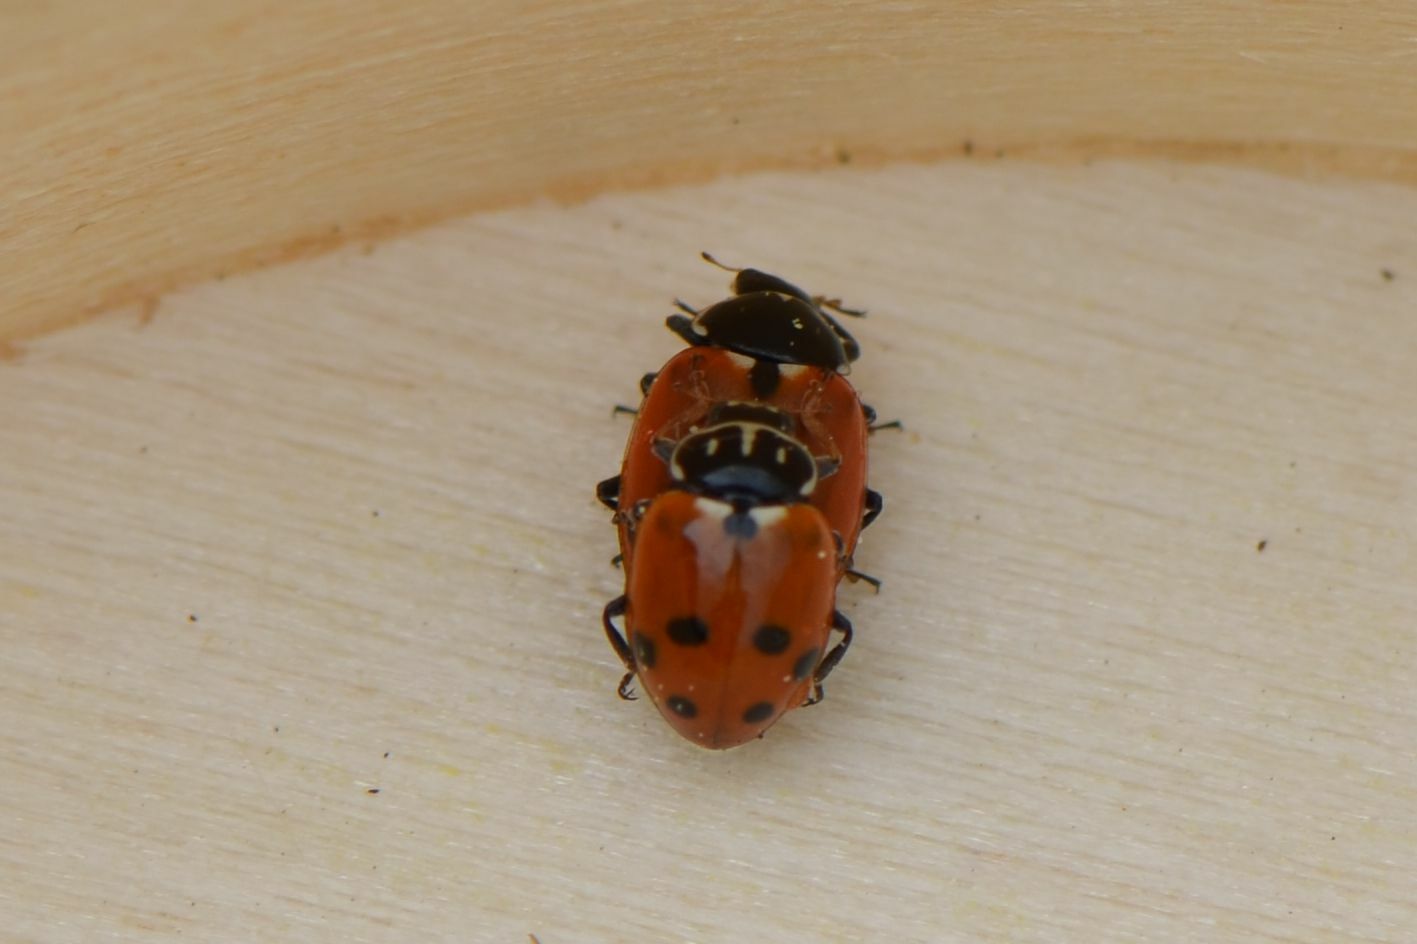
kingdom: Animalia
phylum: Arthropoda
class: Insecta
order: Coleoptera
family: Coccinellidae
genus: Hippodamia
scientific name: Hippodamia variegata
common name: Ladybird beetle
